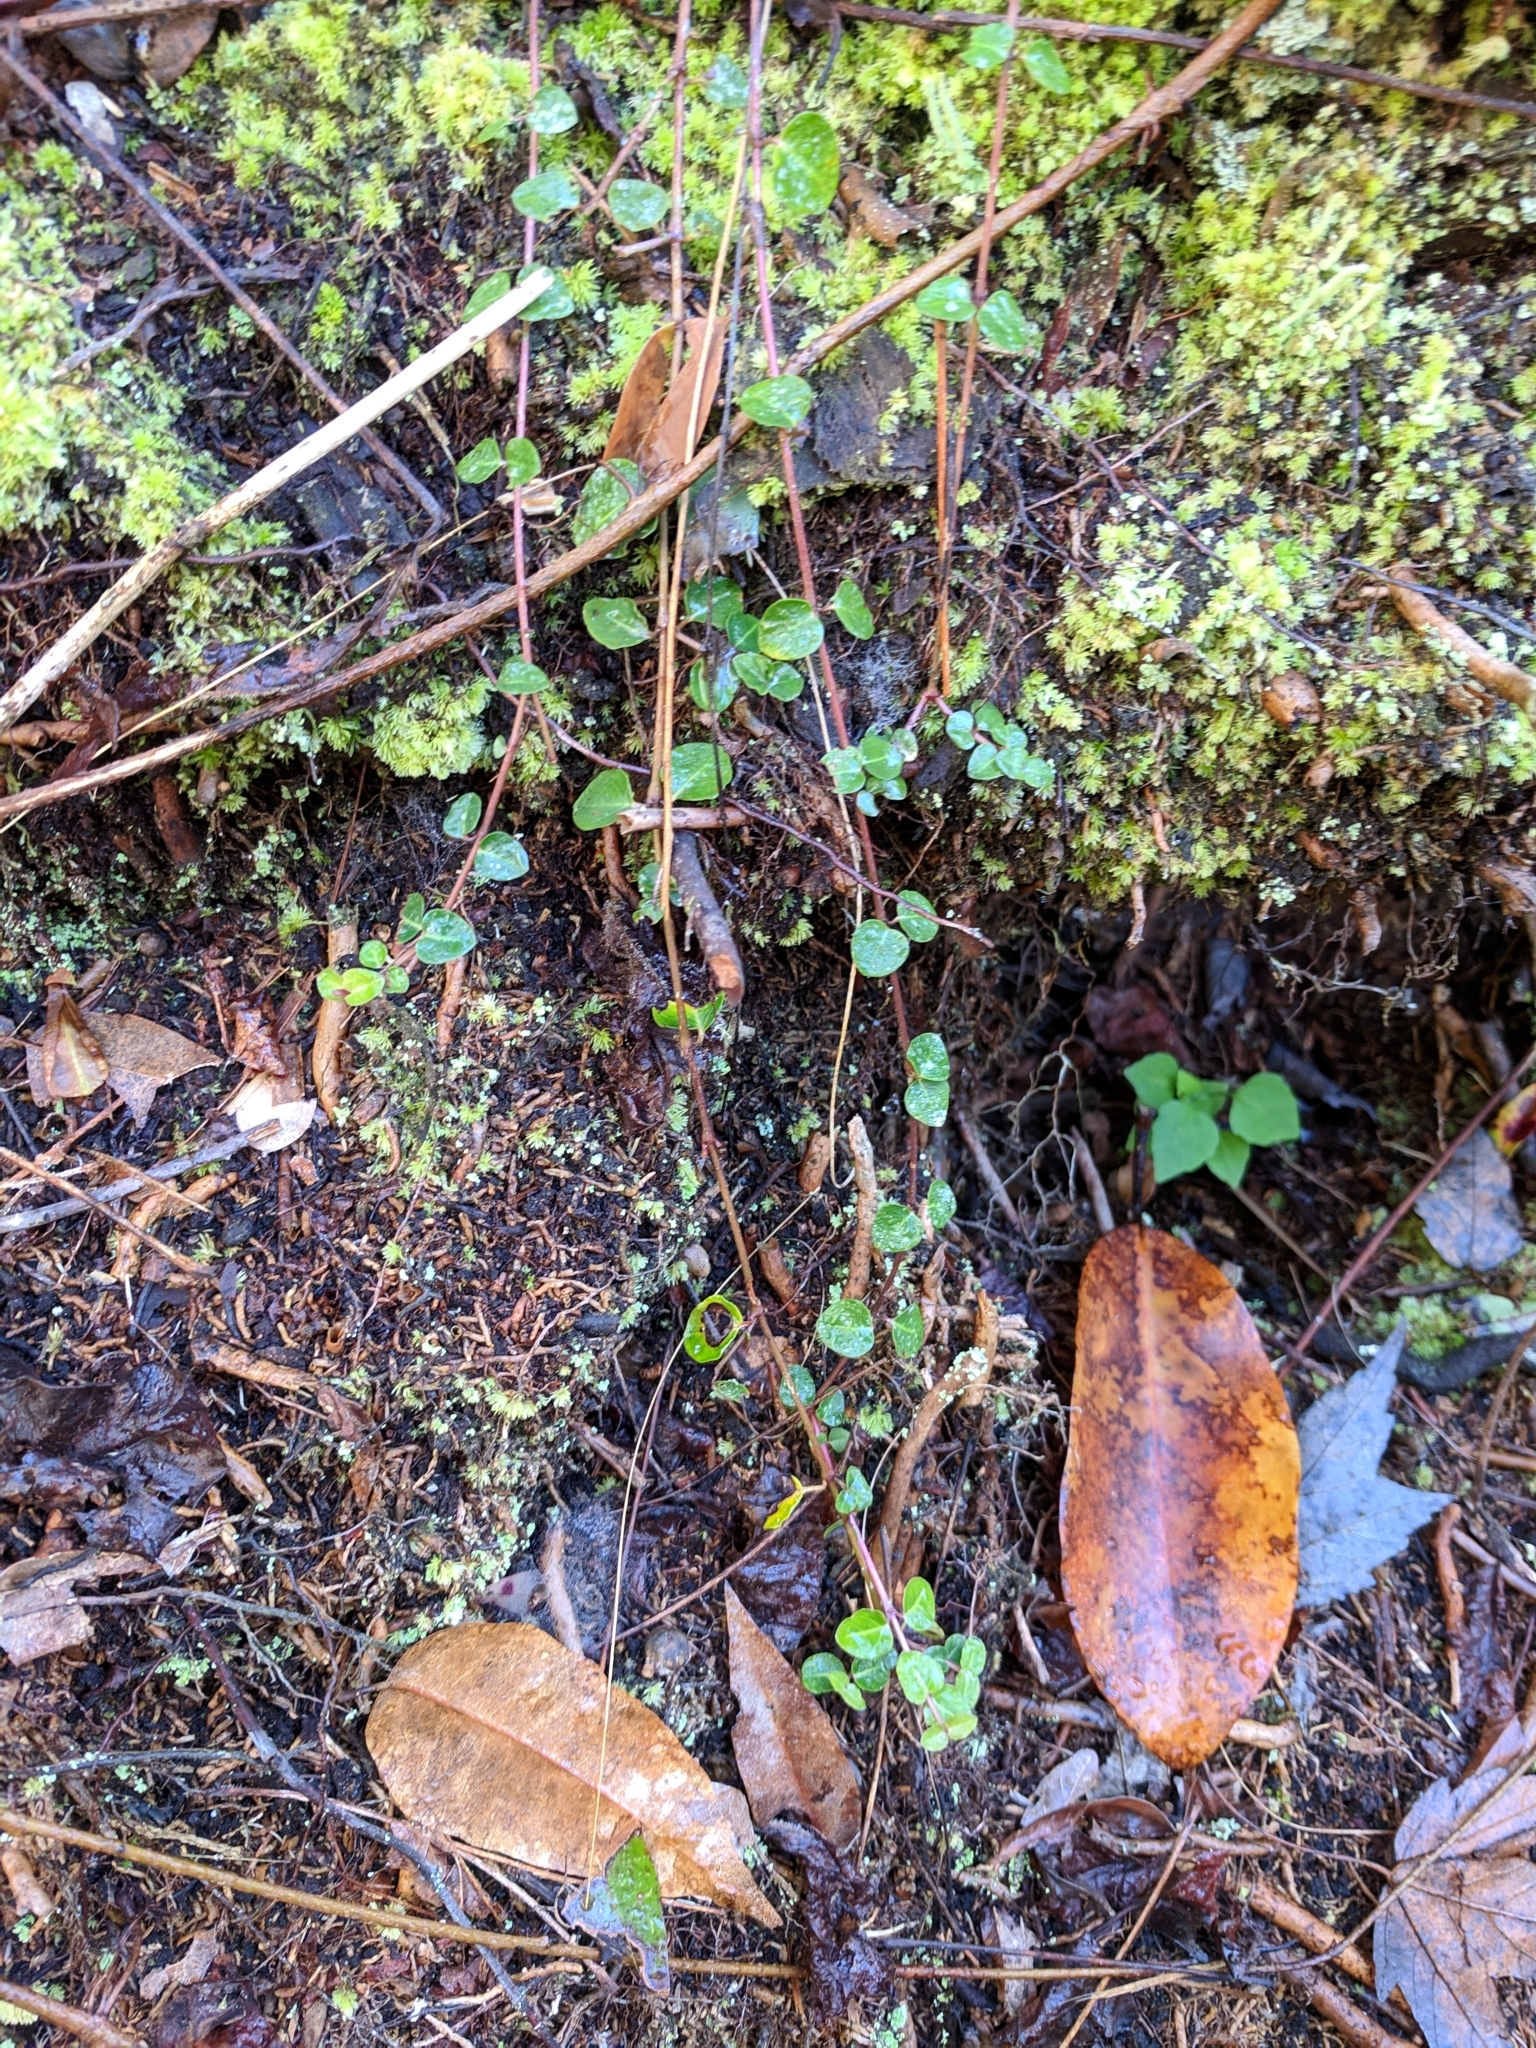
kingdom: Plantae
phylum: Tracheophyta
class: Magnoliopsida
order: Gentianales
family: Rubiaceae
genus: Mitchella
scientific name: Mitchella repens
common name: Partridge-berry
